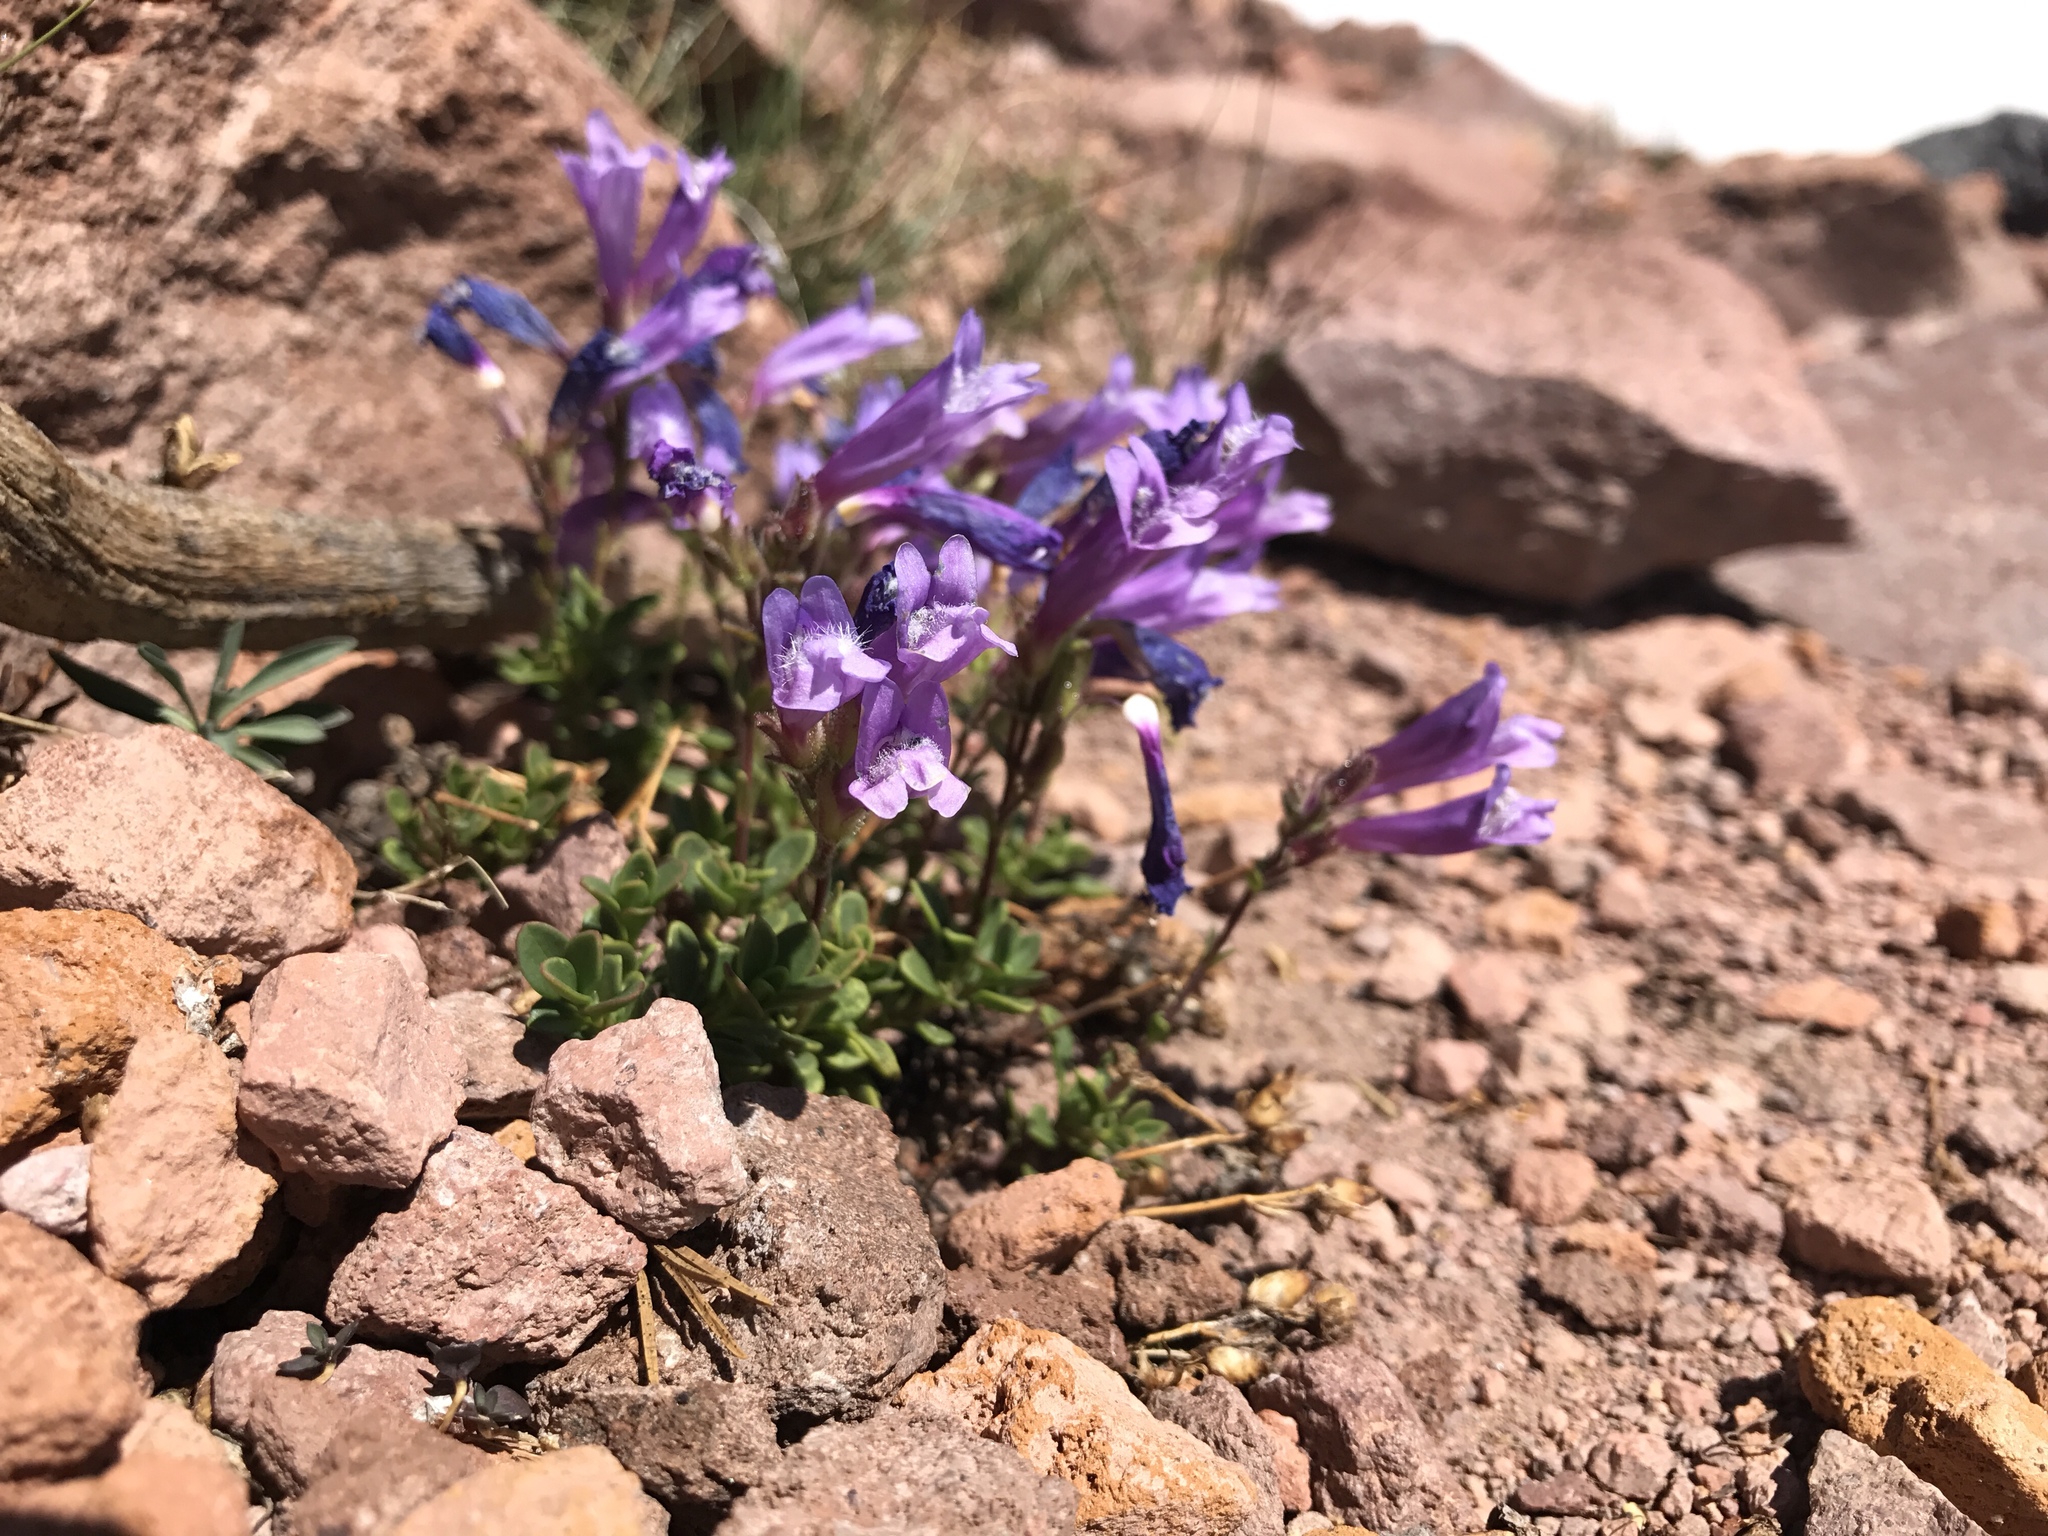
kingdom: Plantae
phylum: Tracheophyta
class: Magnoliopsida
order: Lamiales
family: Plantaginaceae
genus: Penstemon
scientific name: Penstemon davidsonii
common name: Davidson's penstemon
